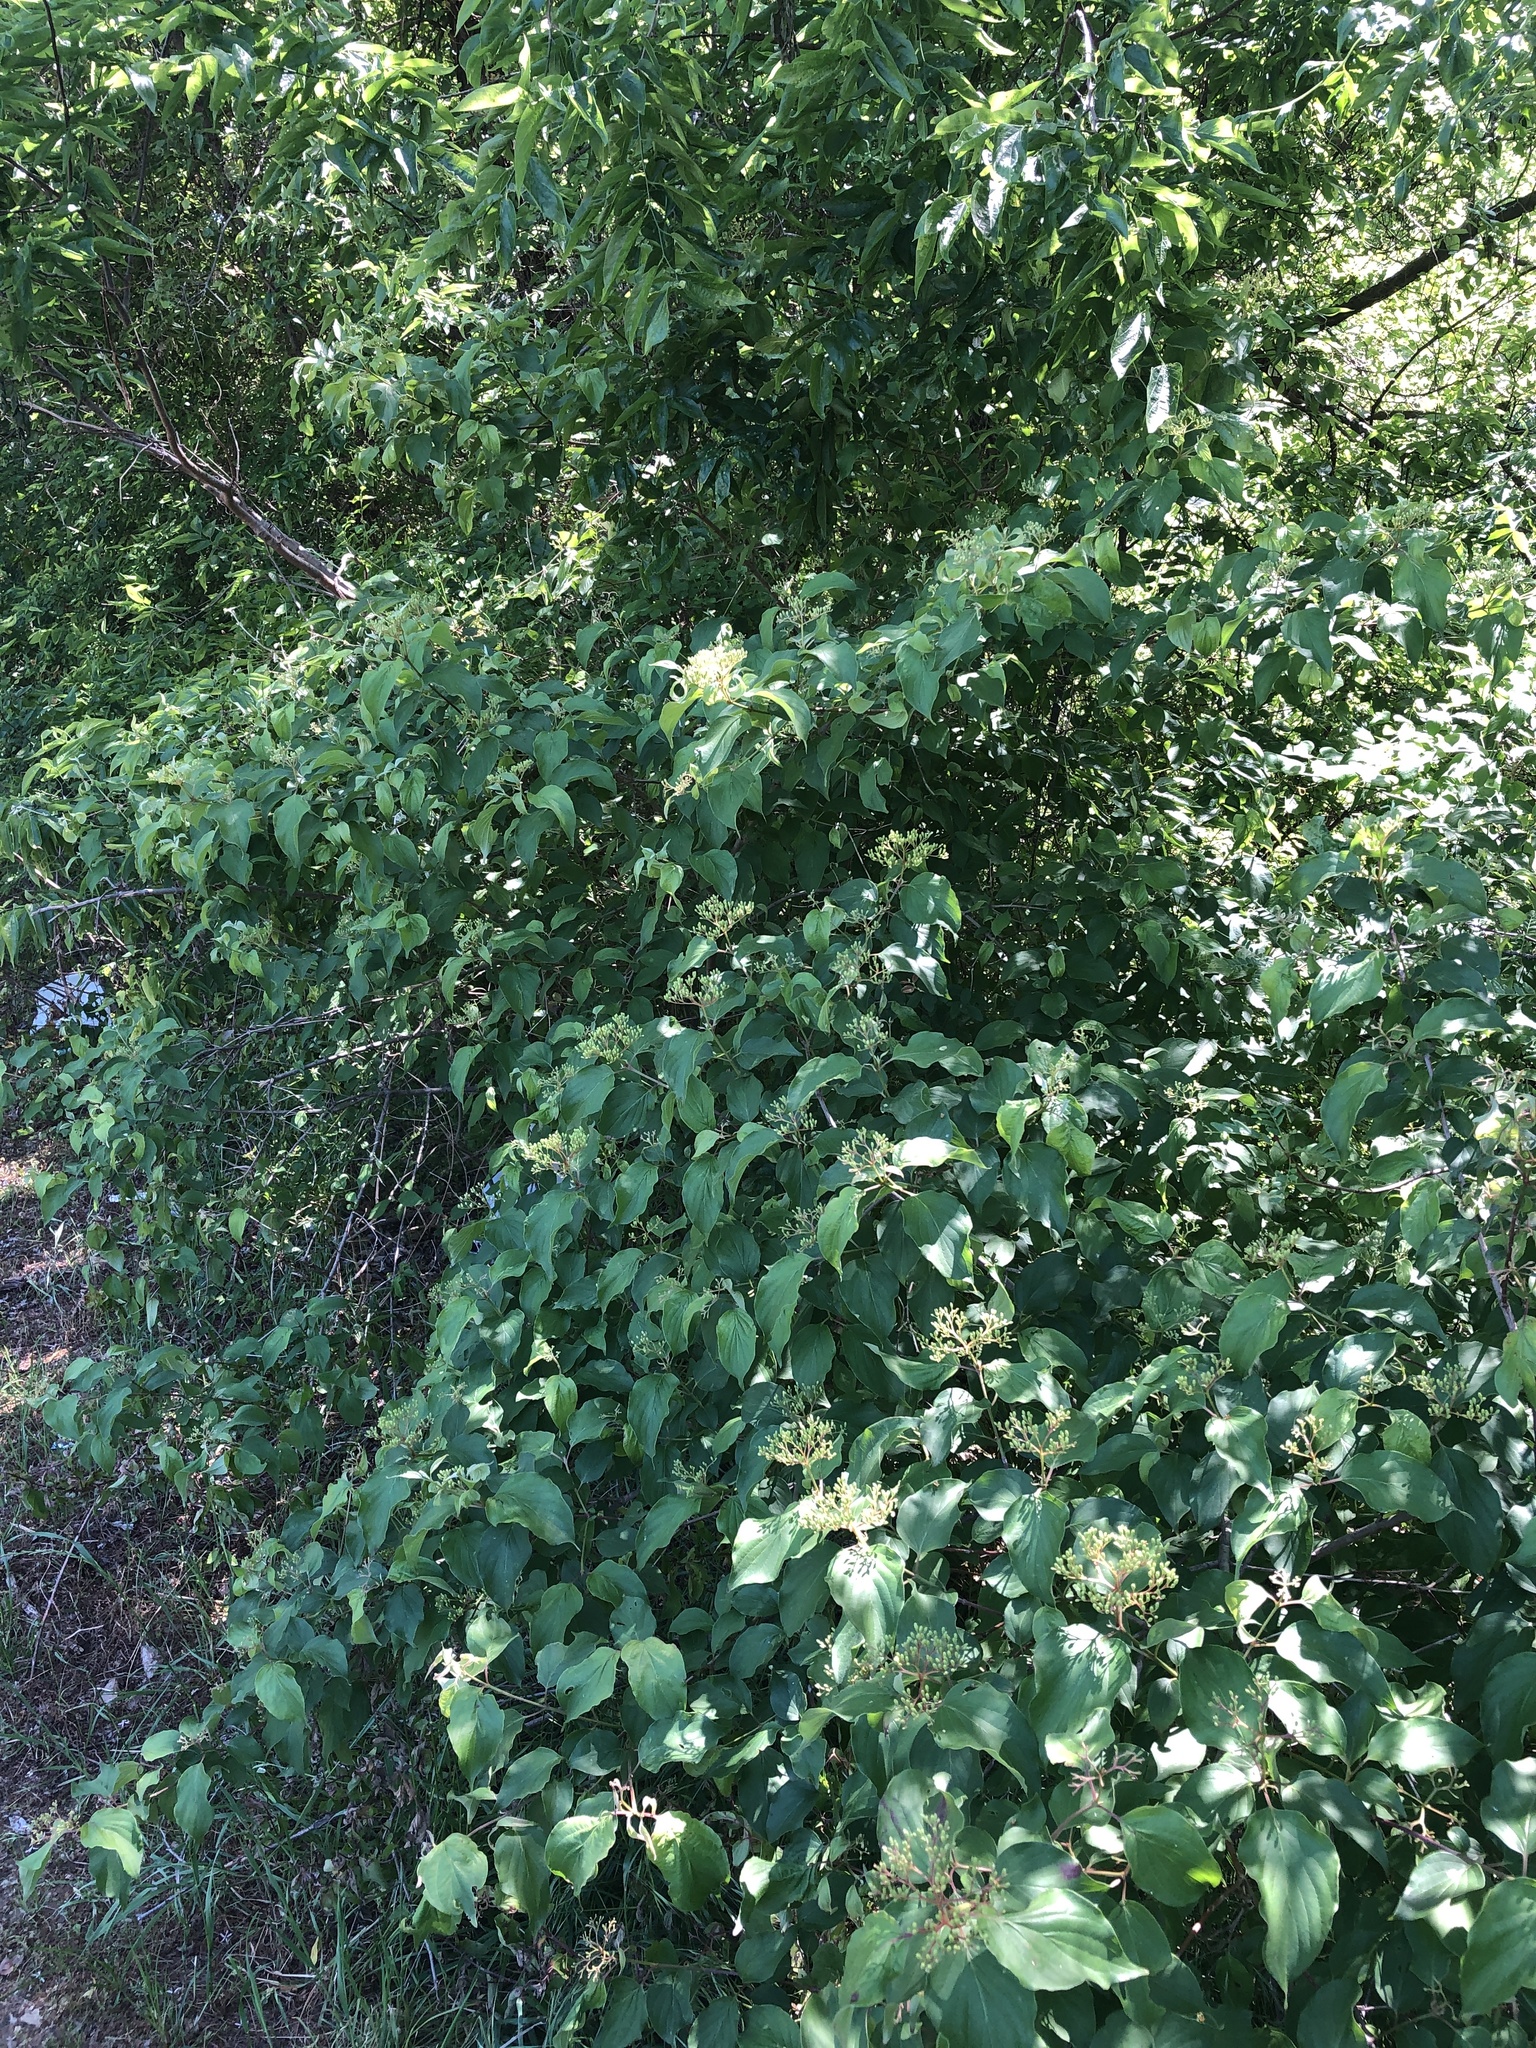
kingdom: Plantae
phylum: Tracheophyta
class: Magnoliopsida
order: Cornales
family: Cornaceae
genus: Cornus
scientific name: Cornus drummondii
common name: Rough-leaf dogwood
